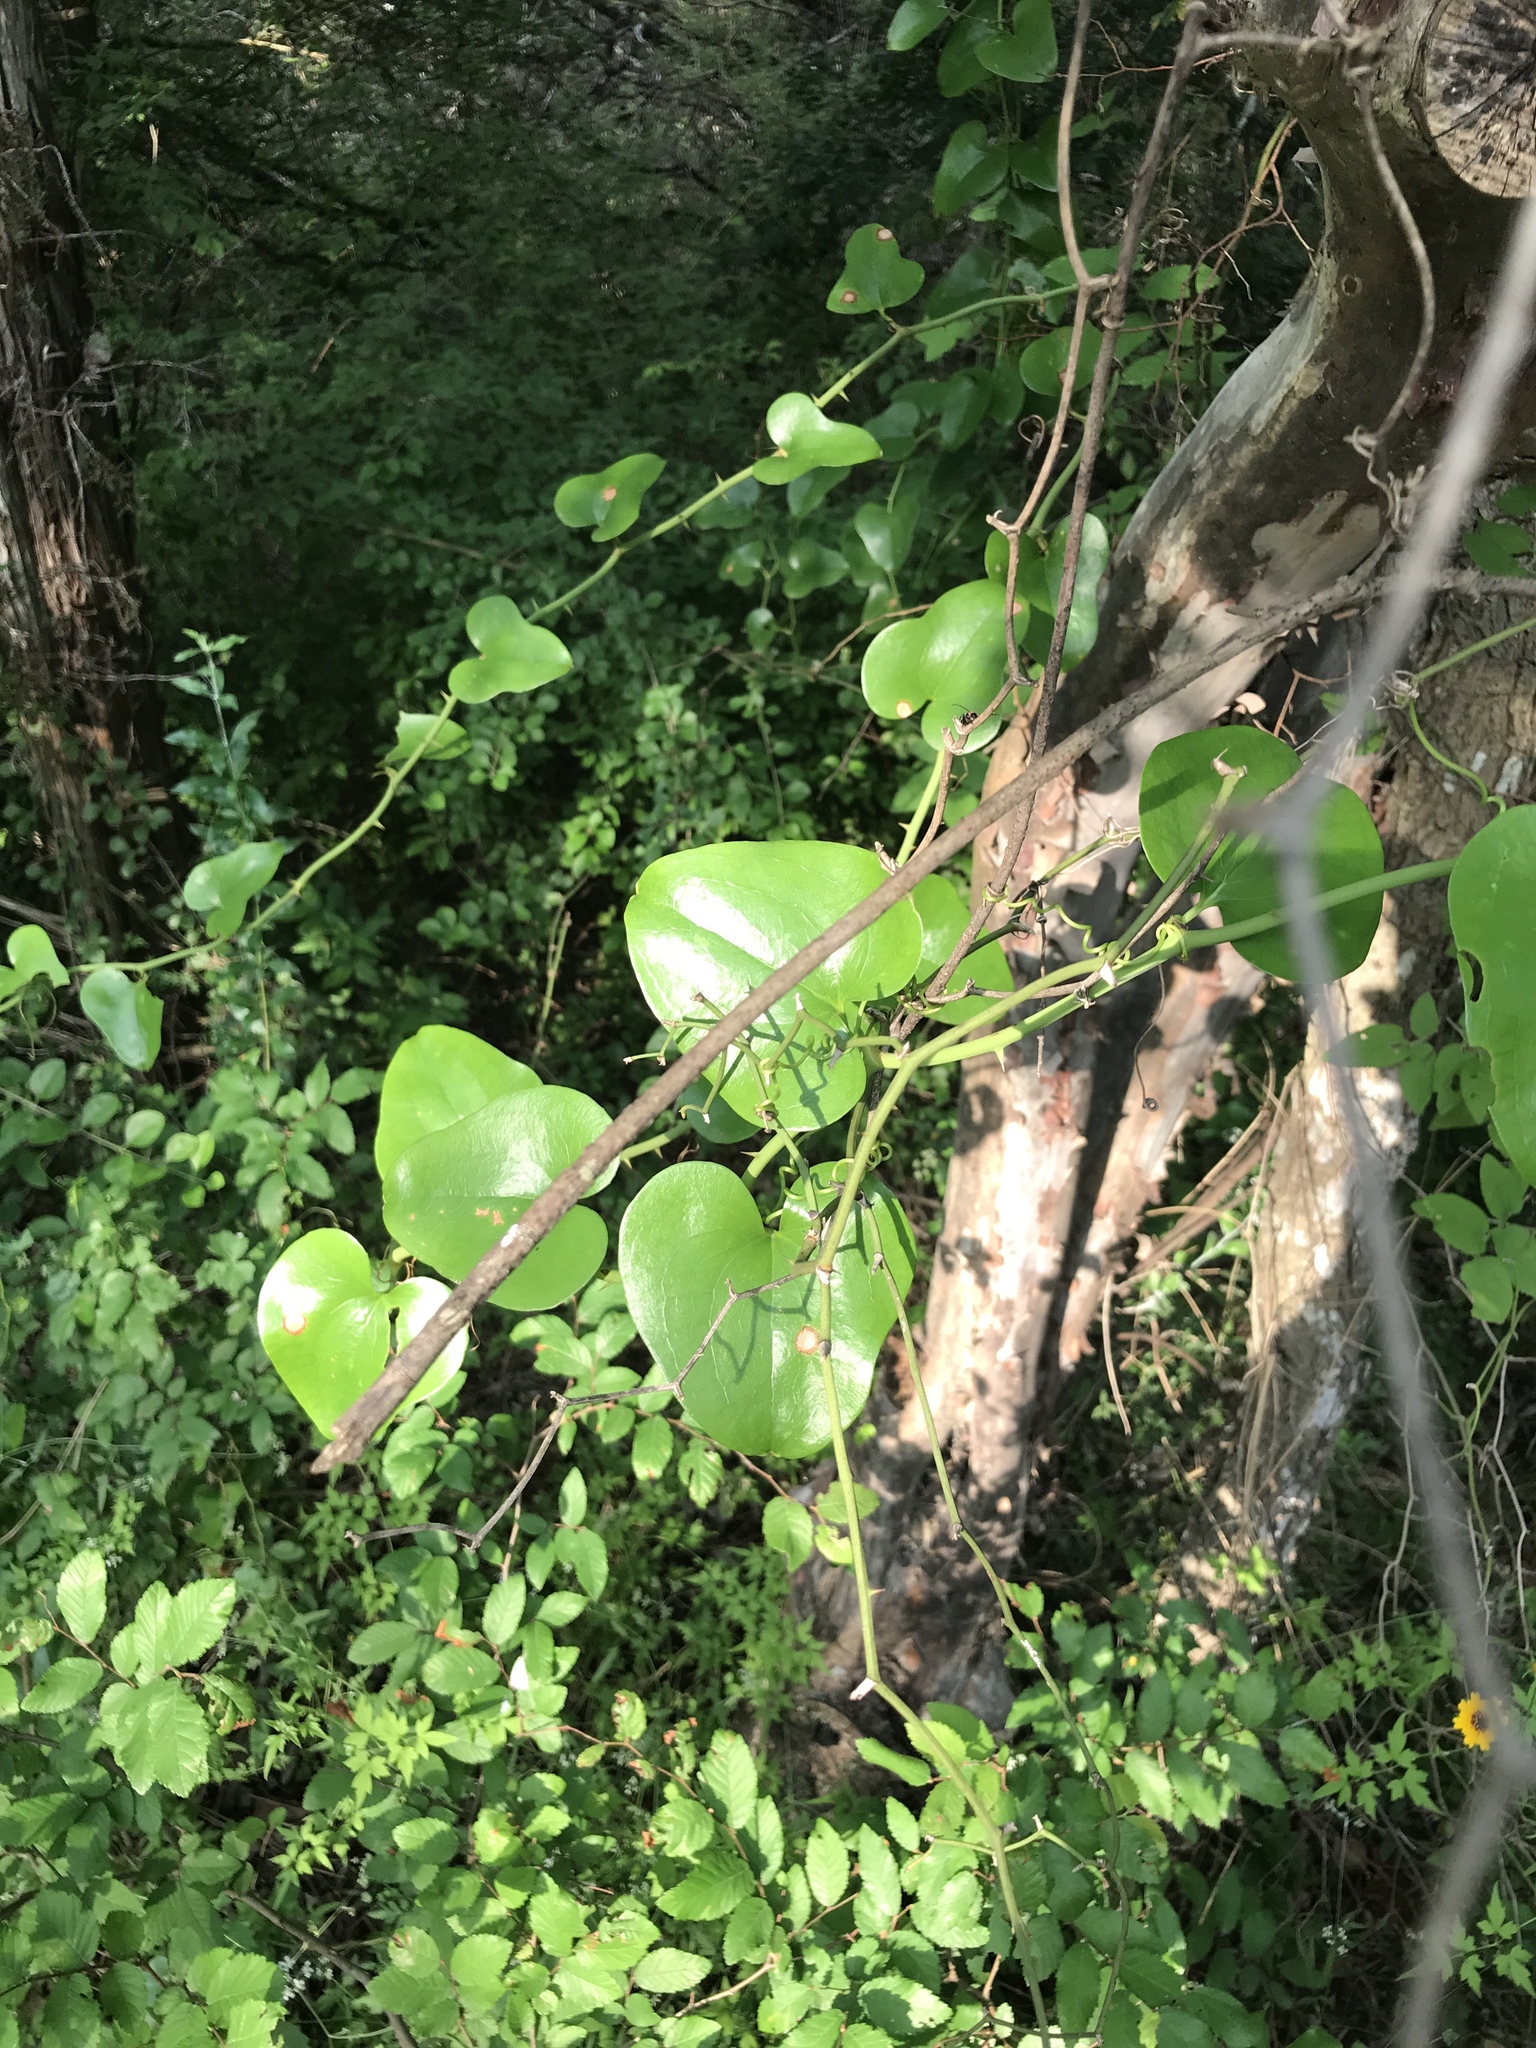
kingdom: Plantae
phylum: Tracheophyta
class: Liliopsida
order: Liliales
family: Smilacaceae
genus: Smilax
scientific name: Smilax bona-nox
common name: Catbrier
